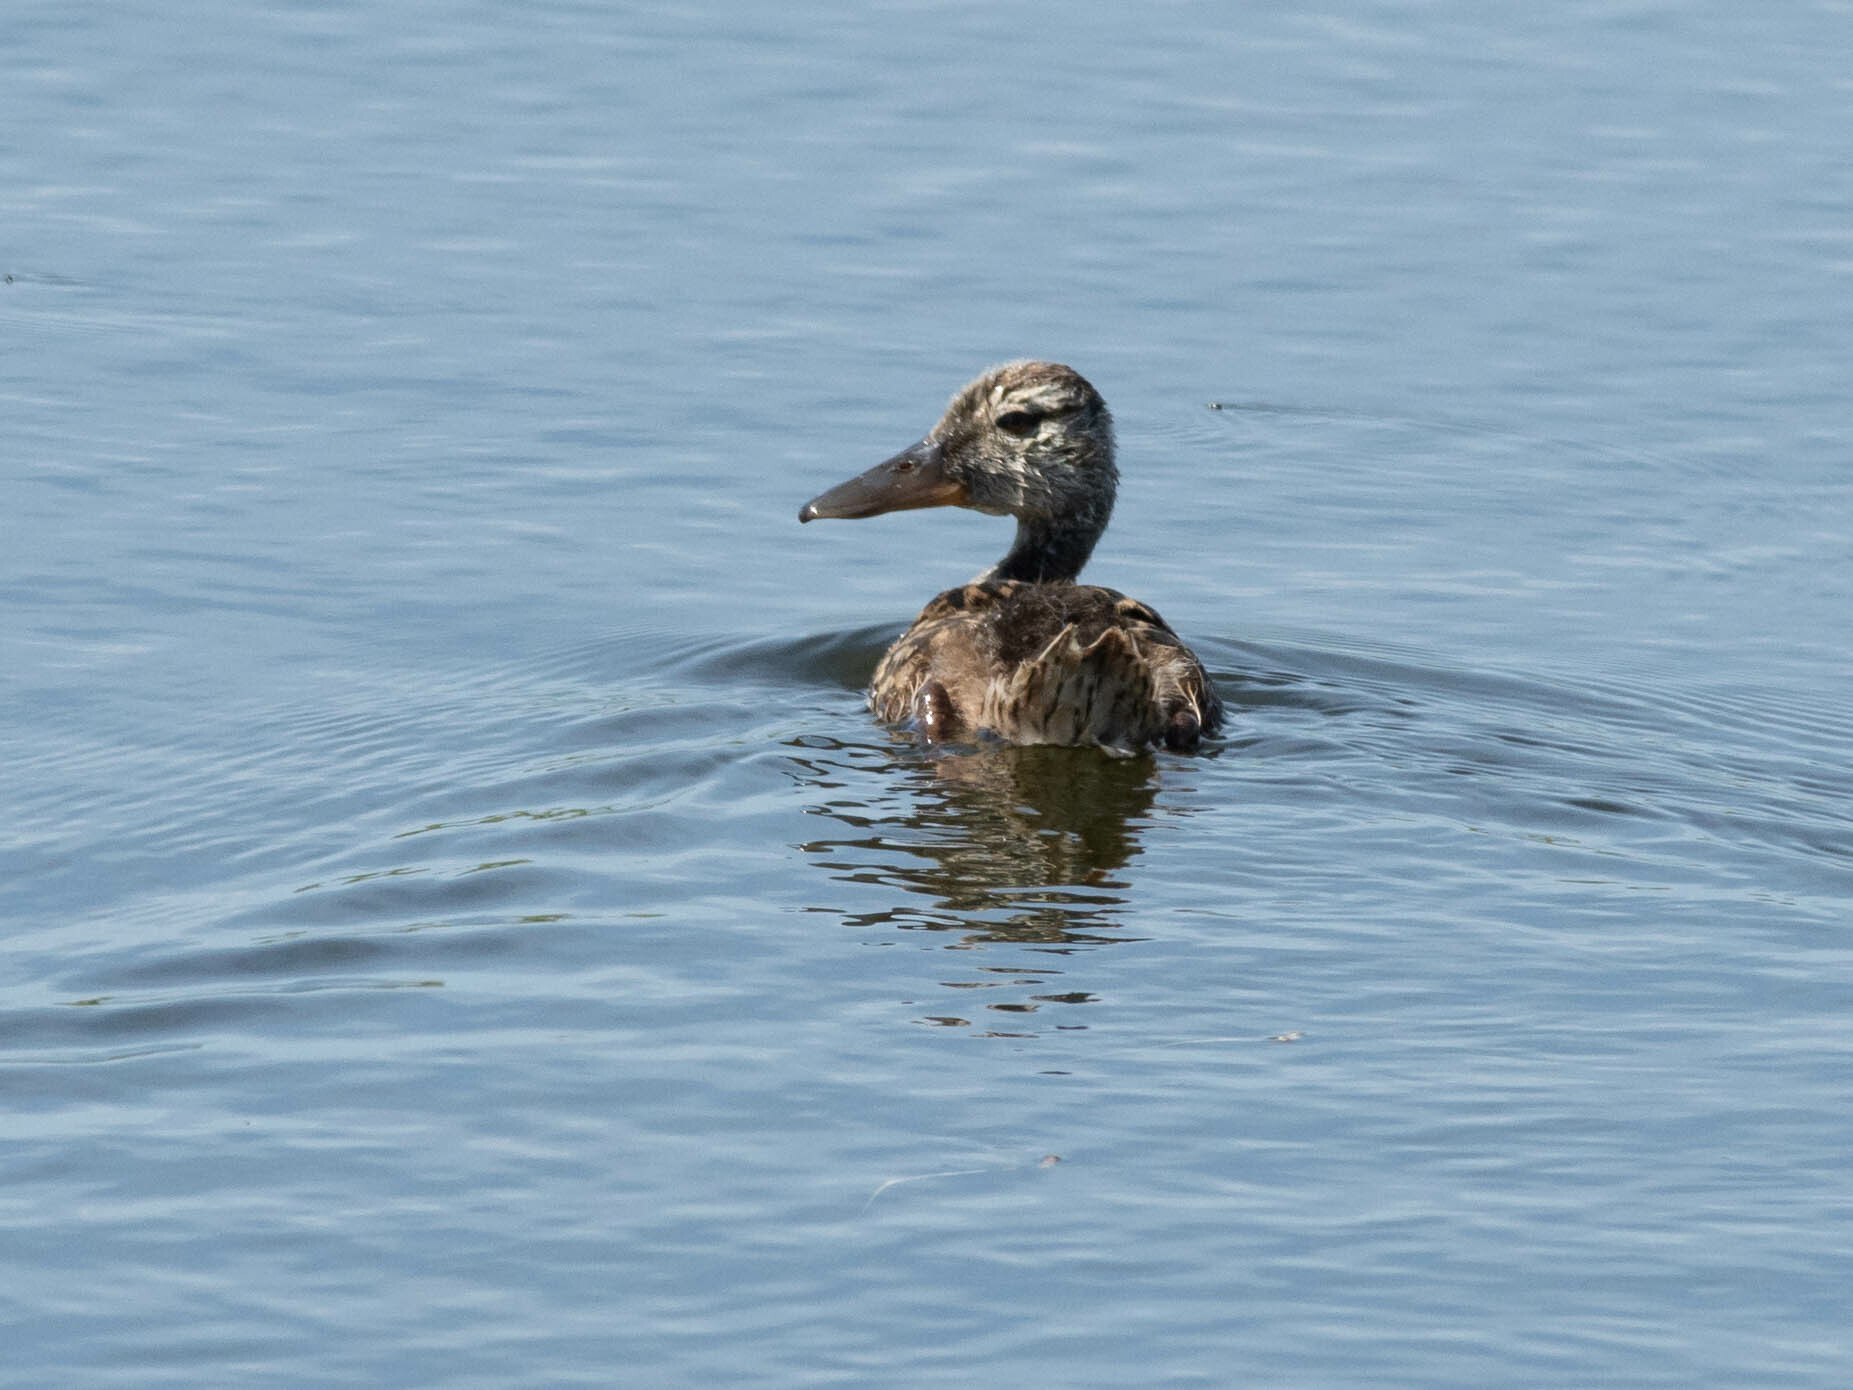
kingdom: Animalia
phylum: Chordata
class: Aves
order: Anseriformes
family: Anatidae
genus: Spatula
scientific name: Spatula clypeata
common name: Northern shoveler
